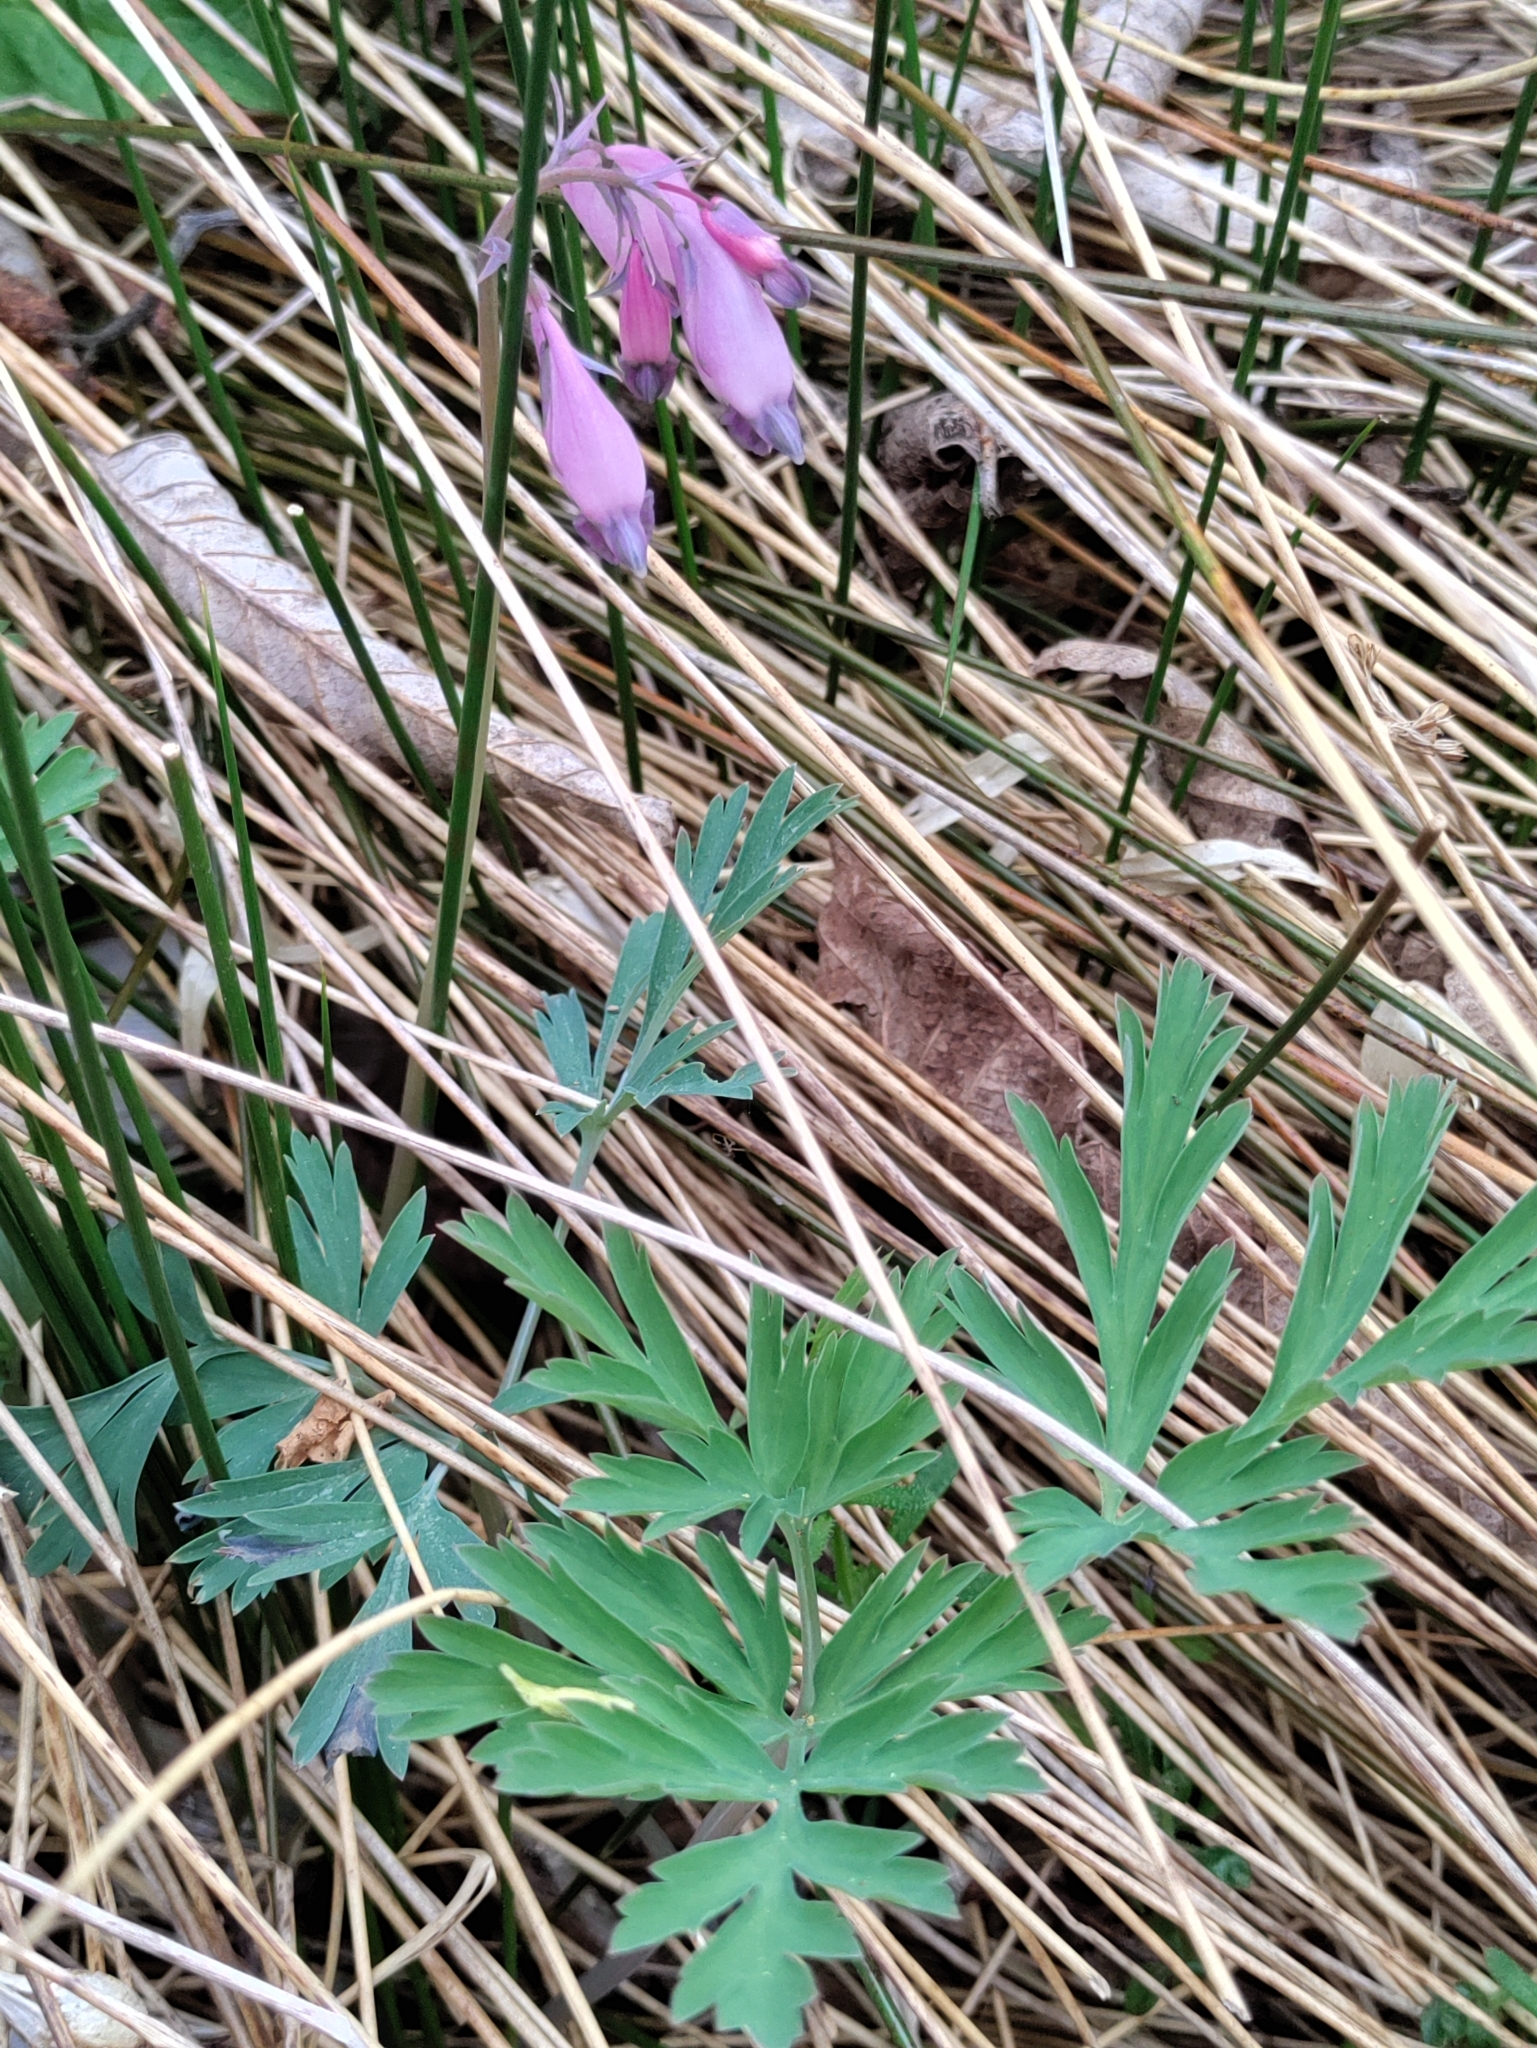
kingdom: Plantae
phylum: Tracheophyta
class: Magnoliopsida
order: Ranunculales
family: Papaveraceae
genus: Dicentra
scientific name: Dicentra formosa
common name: Bleeding-heart
